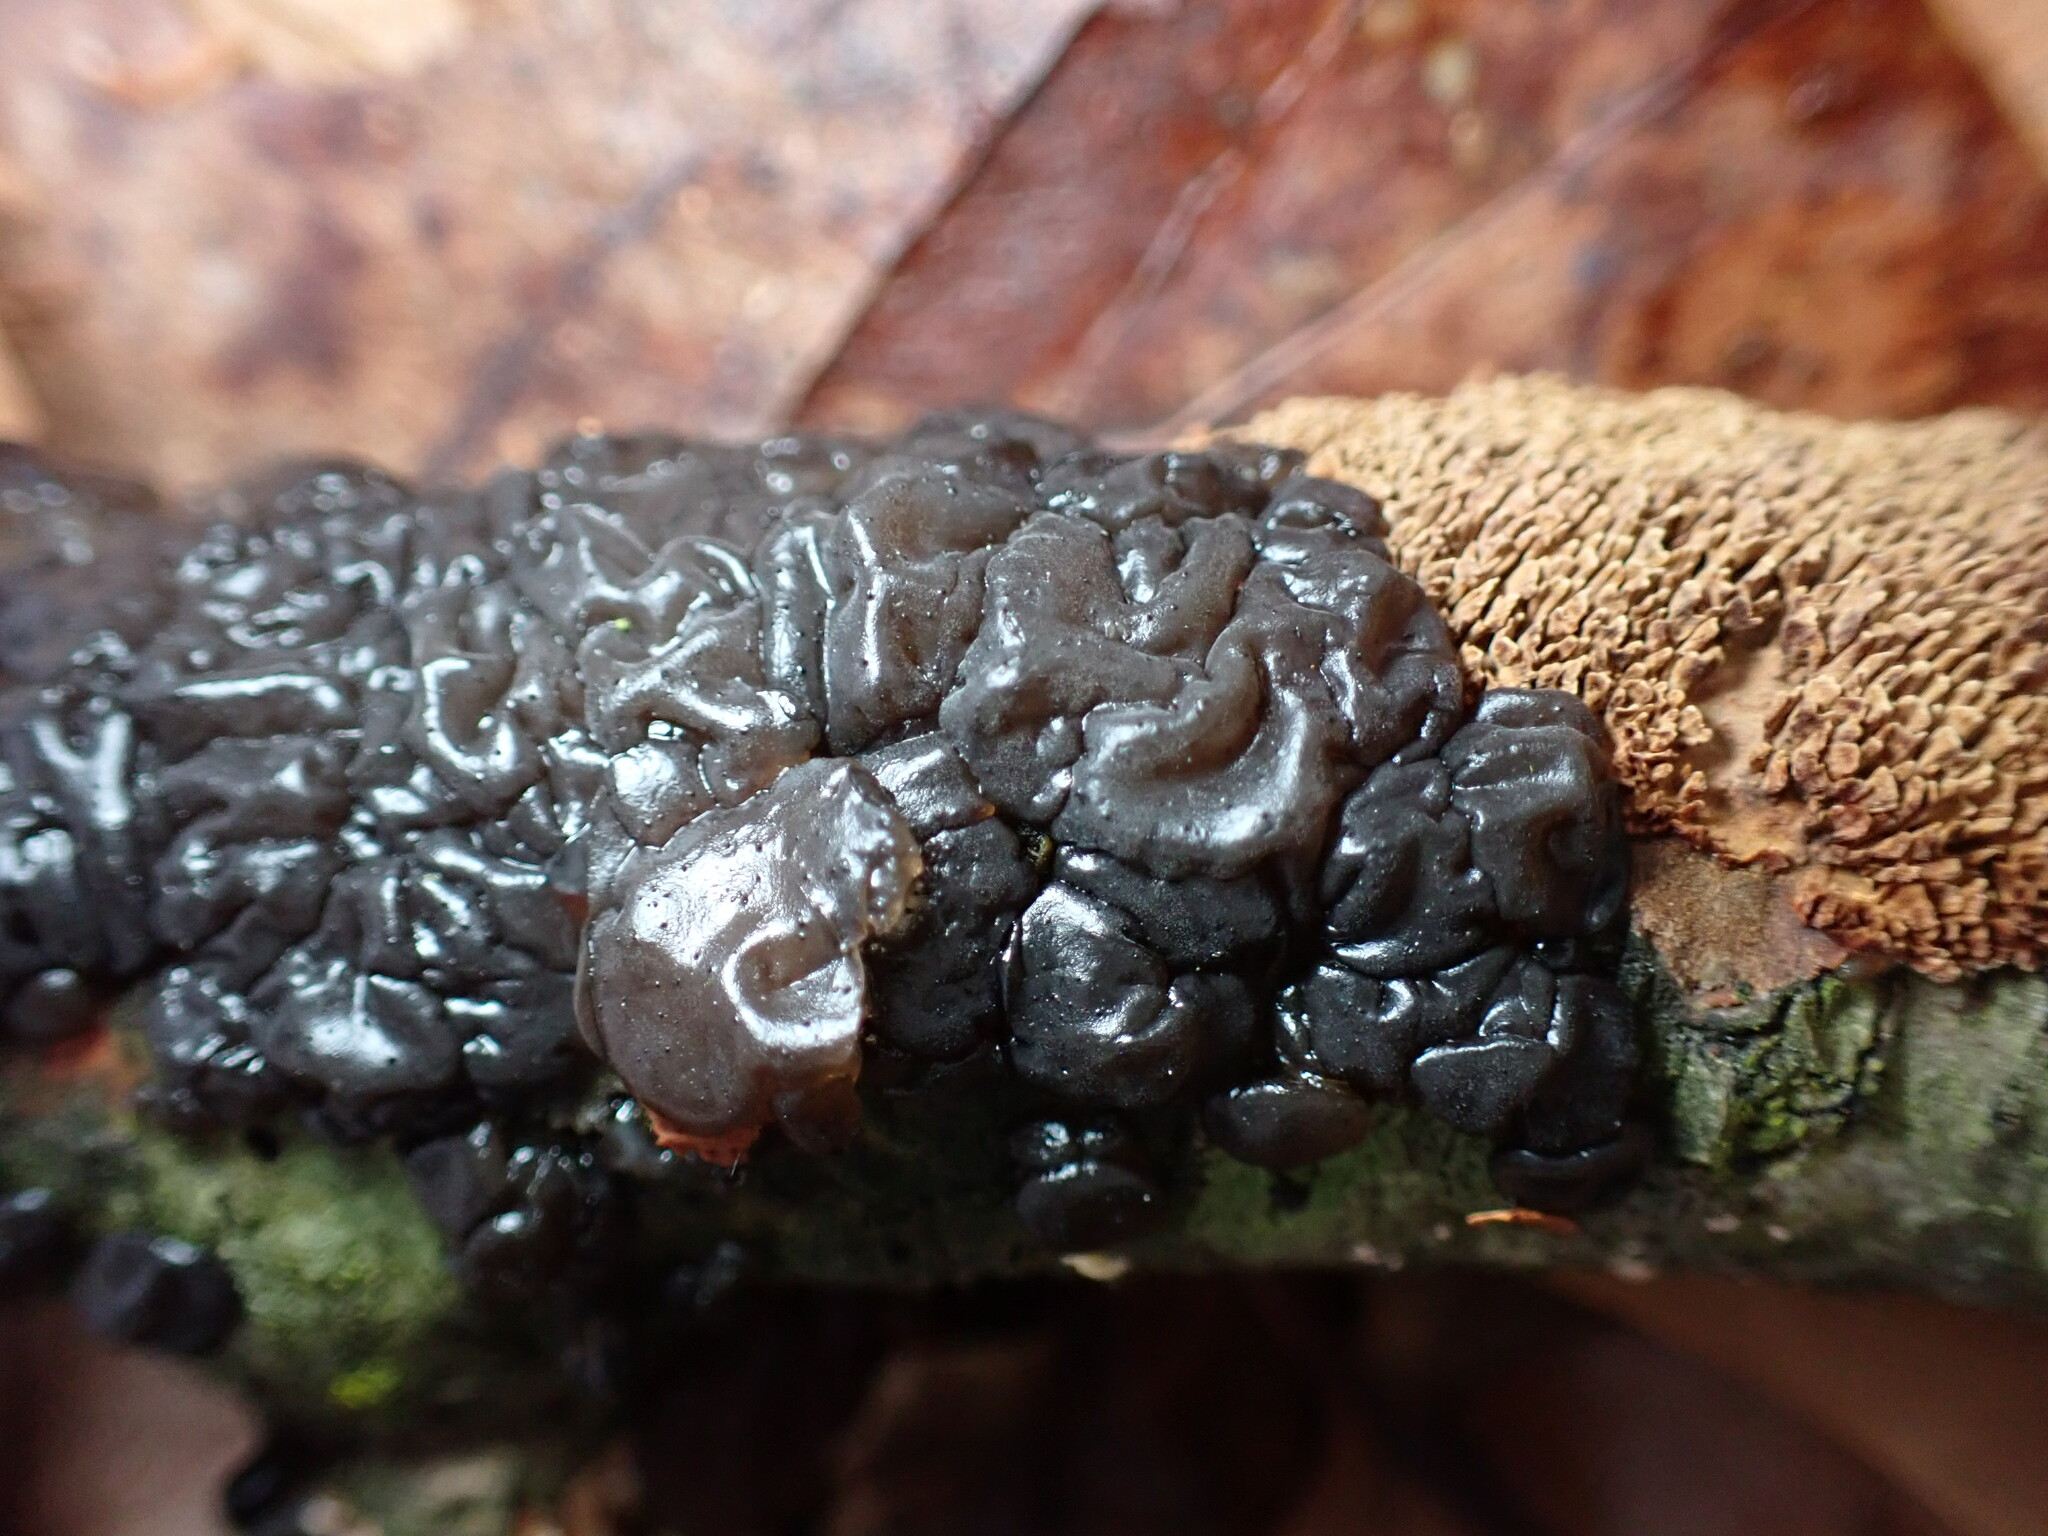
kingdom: Fungi
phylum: Basidiomycota
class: Agaricomycetes
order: Auriculariales
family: Auriculariaceae
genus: Exidia
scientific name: Exidia nigricans
